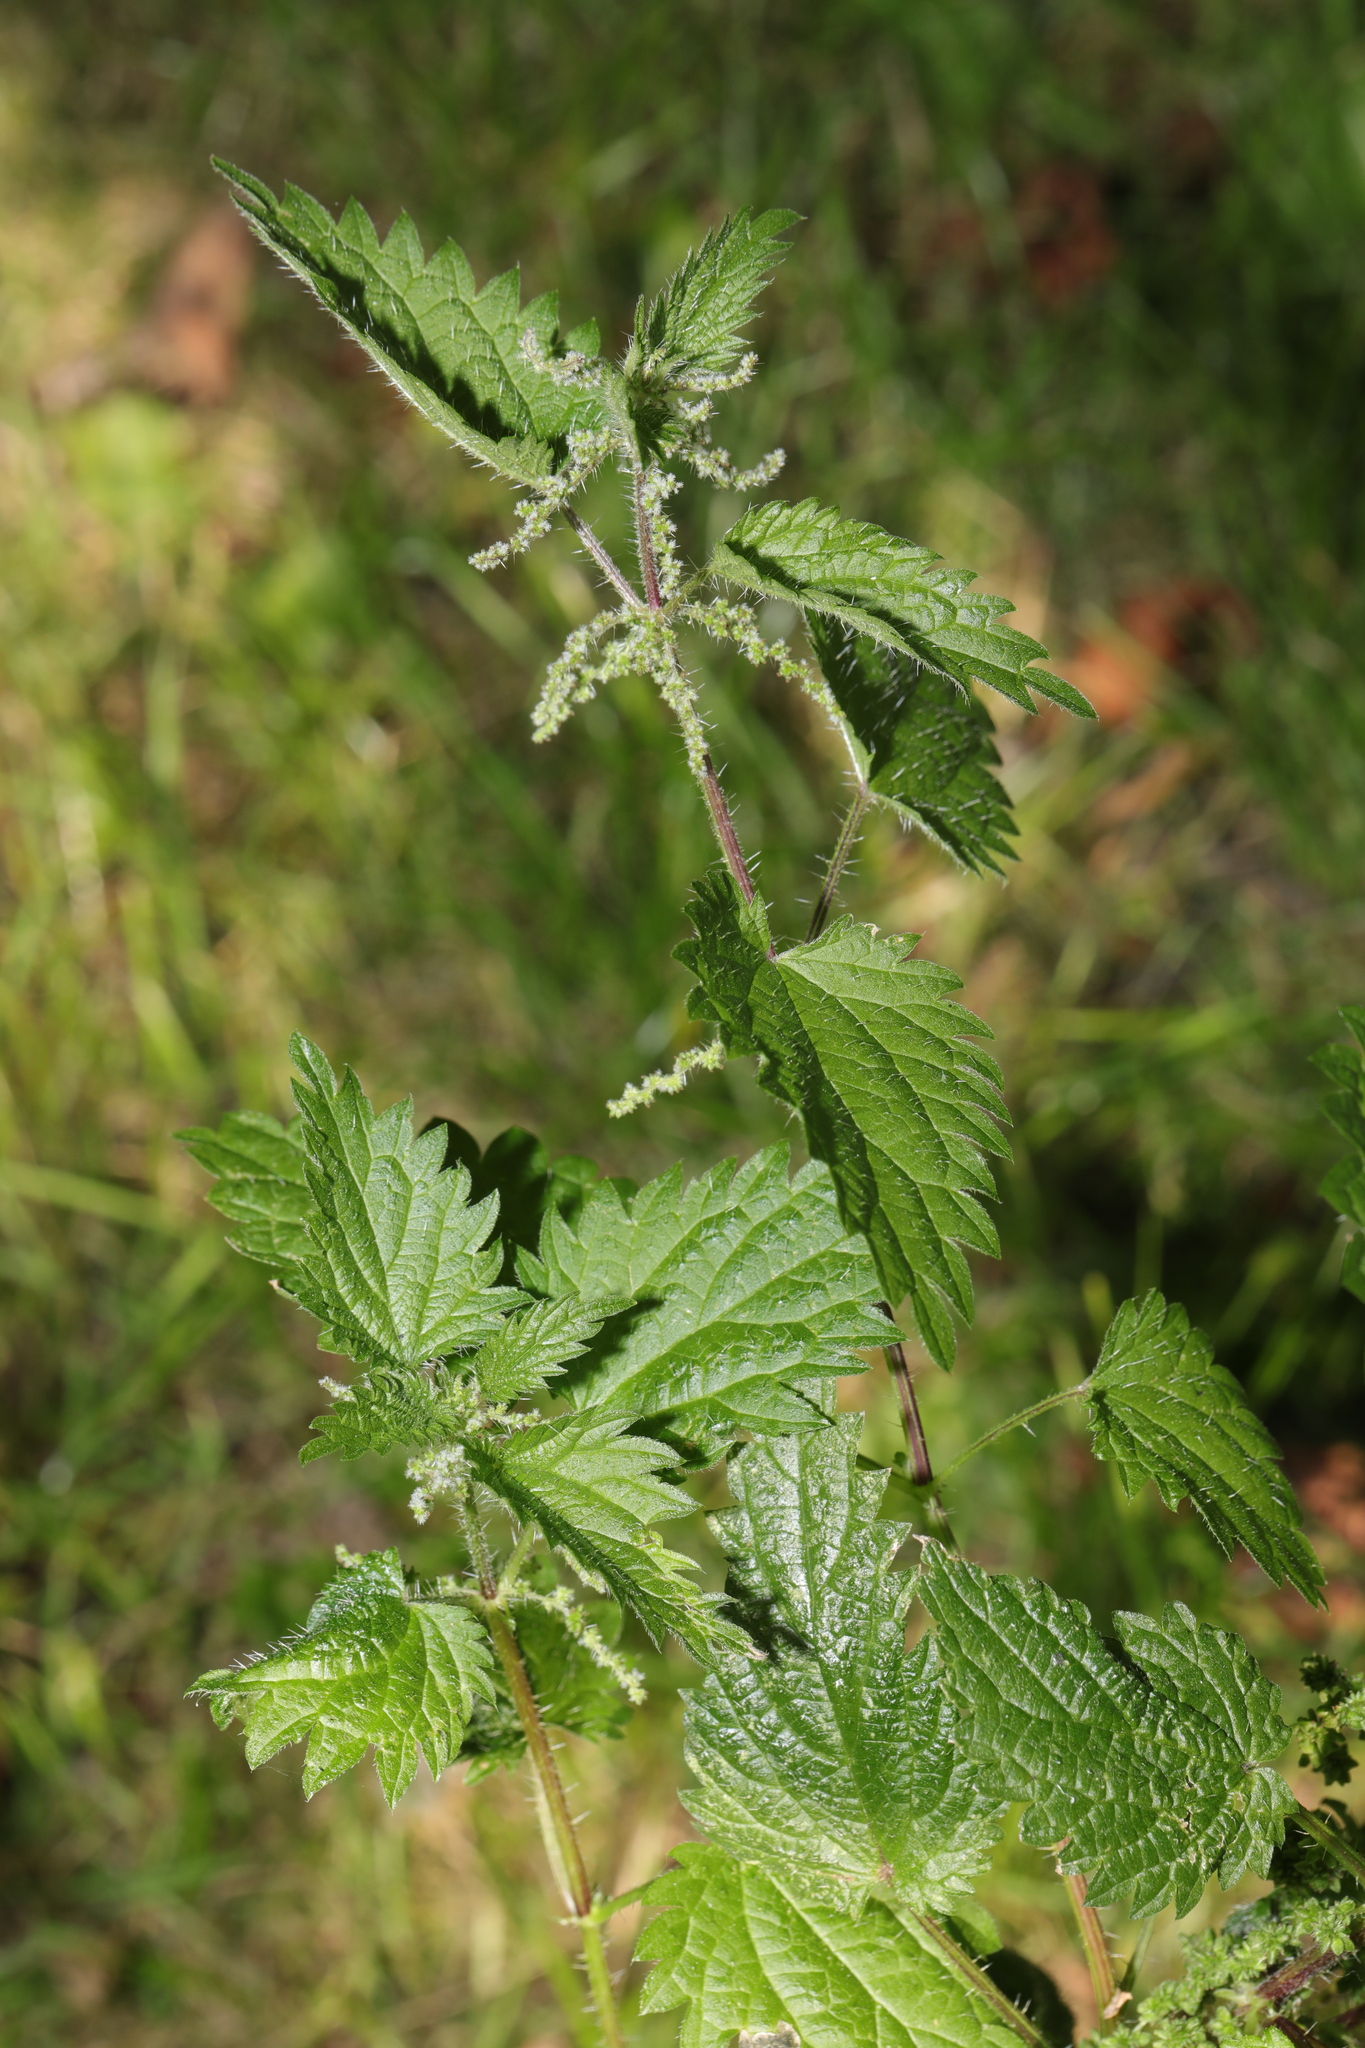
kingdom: Plantae
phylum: Tracheophyta
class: Magnoliopsida
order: Rosales
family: Urticaceae
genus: Urtica
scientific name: Urtica dioica
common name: Common nettle
